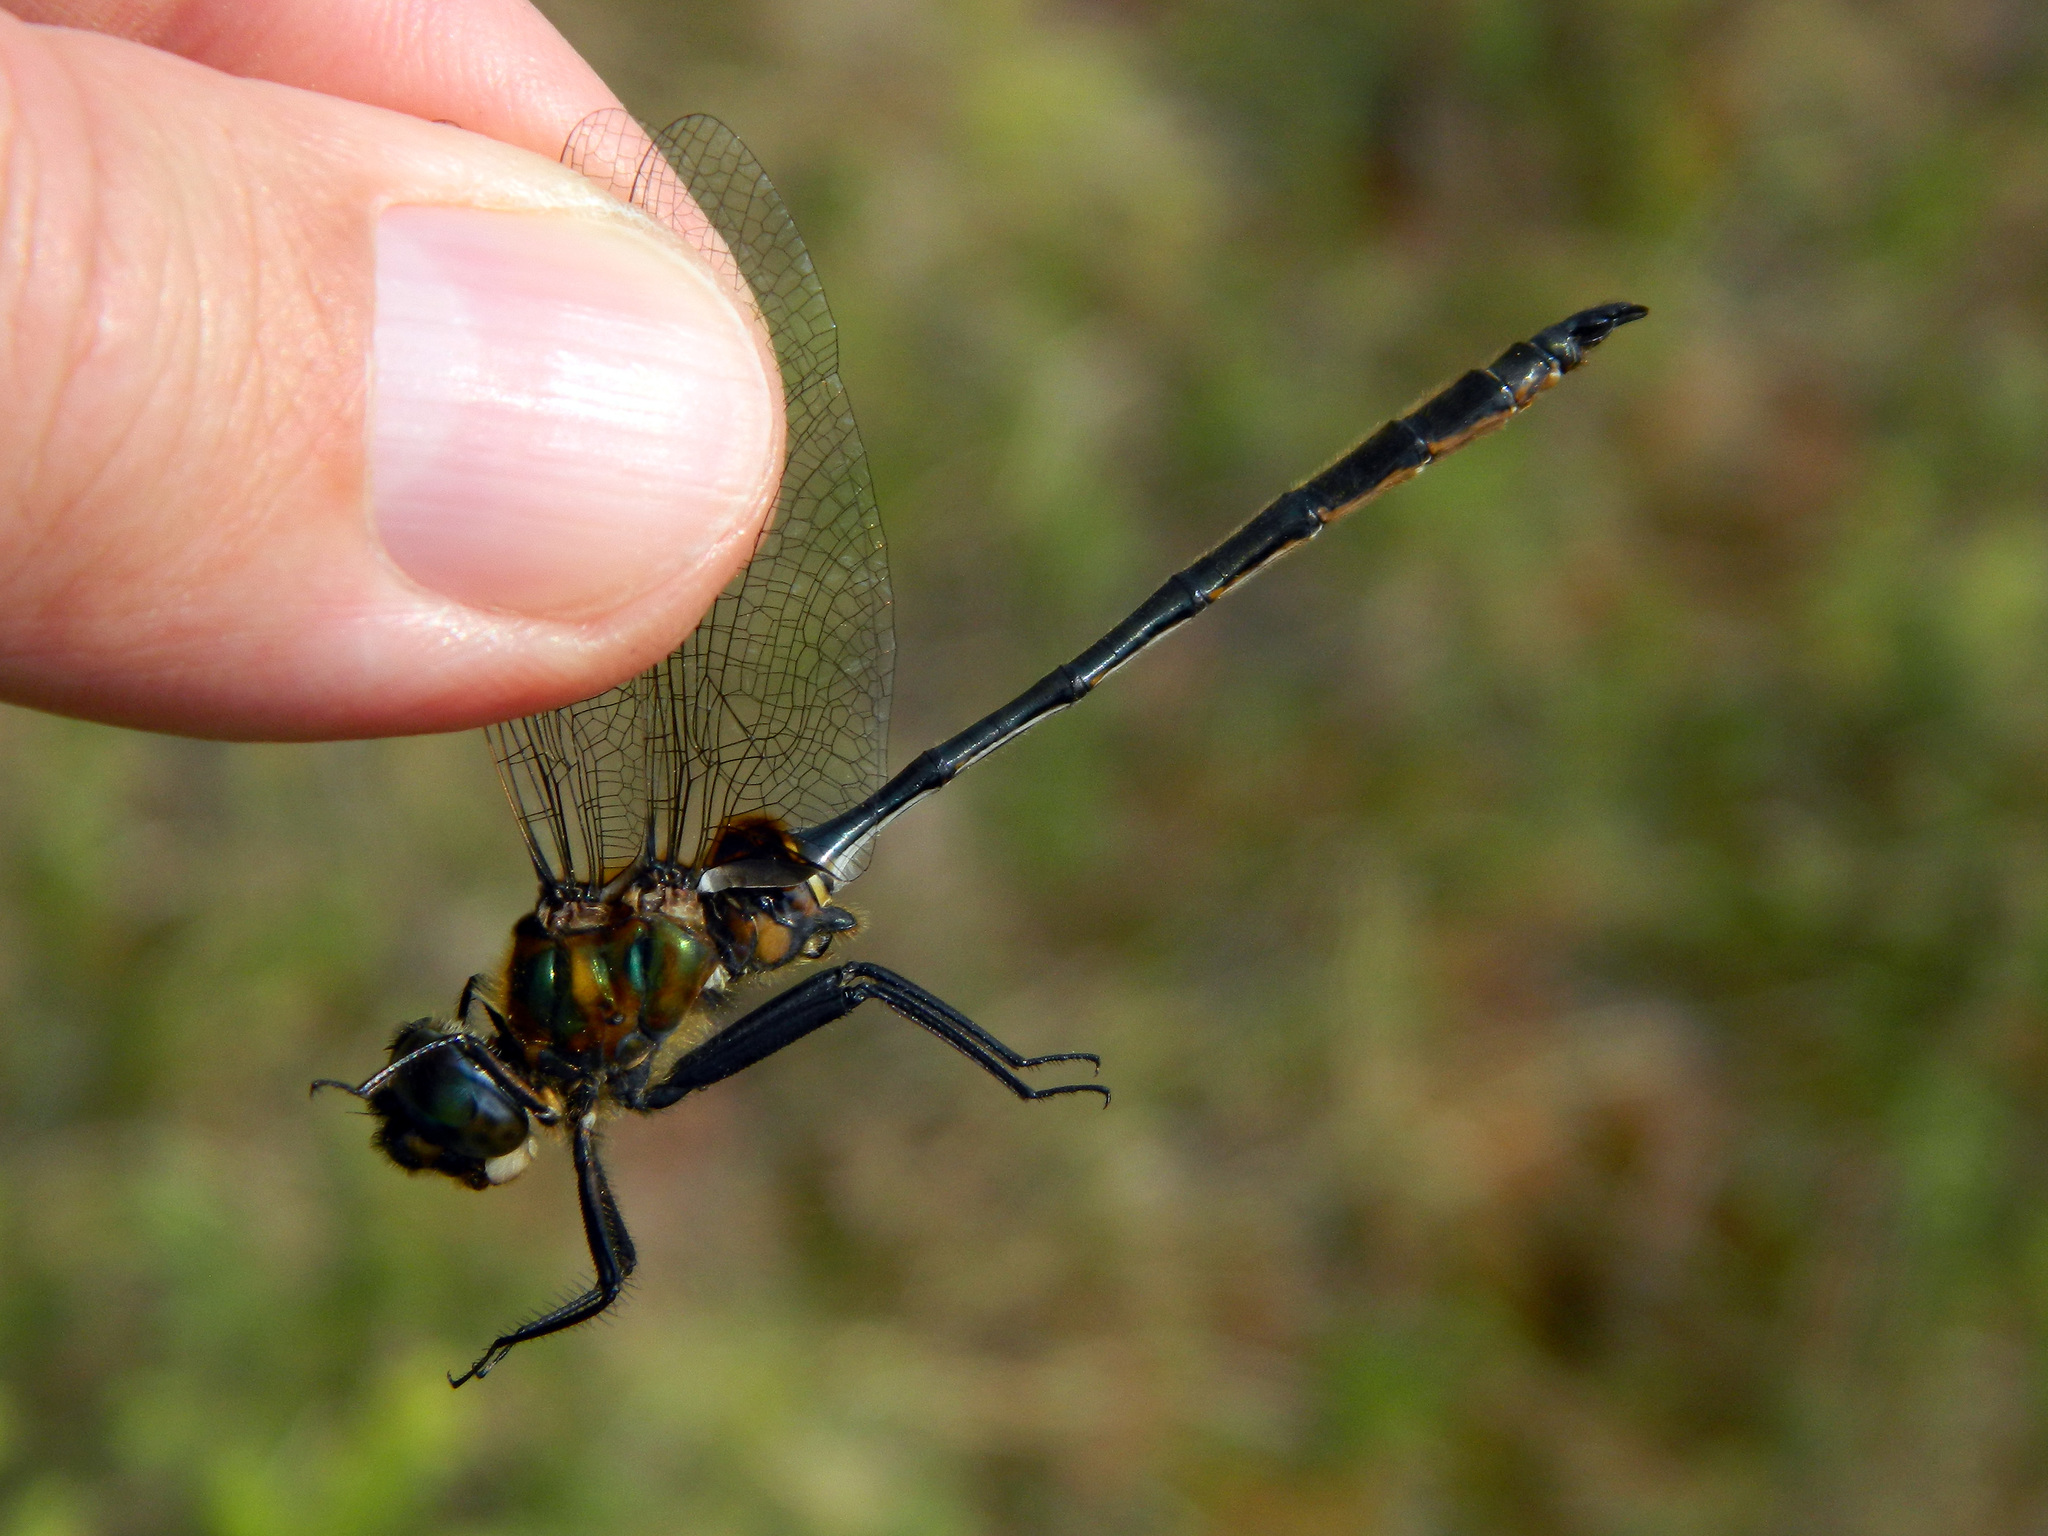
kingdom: Animalia
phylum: Arthropoda
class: Insecta
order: Odonata
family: Corduliidae
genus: Somatochlora
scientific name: Somatochlora franklini
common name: Delicate emerald
